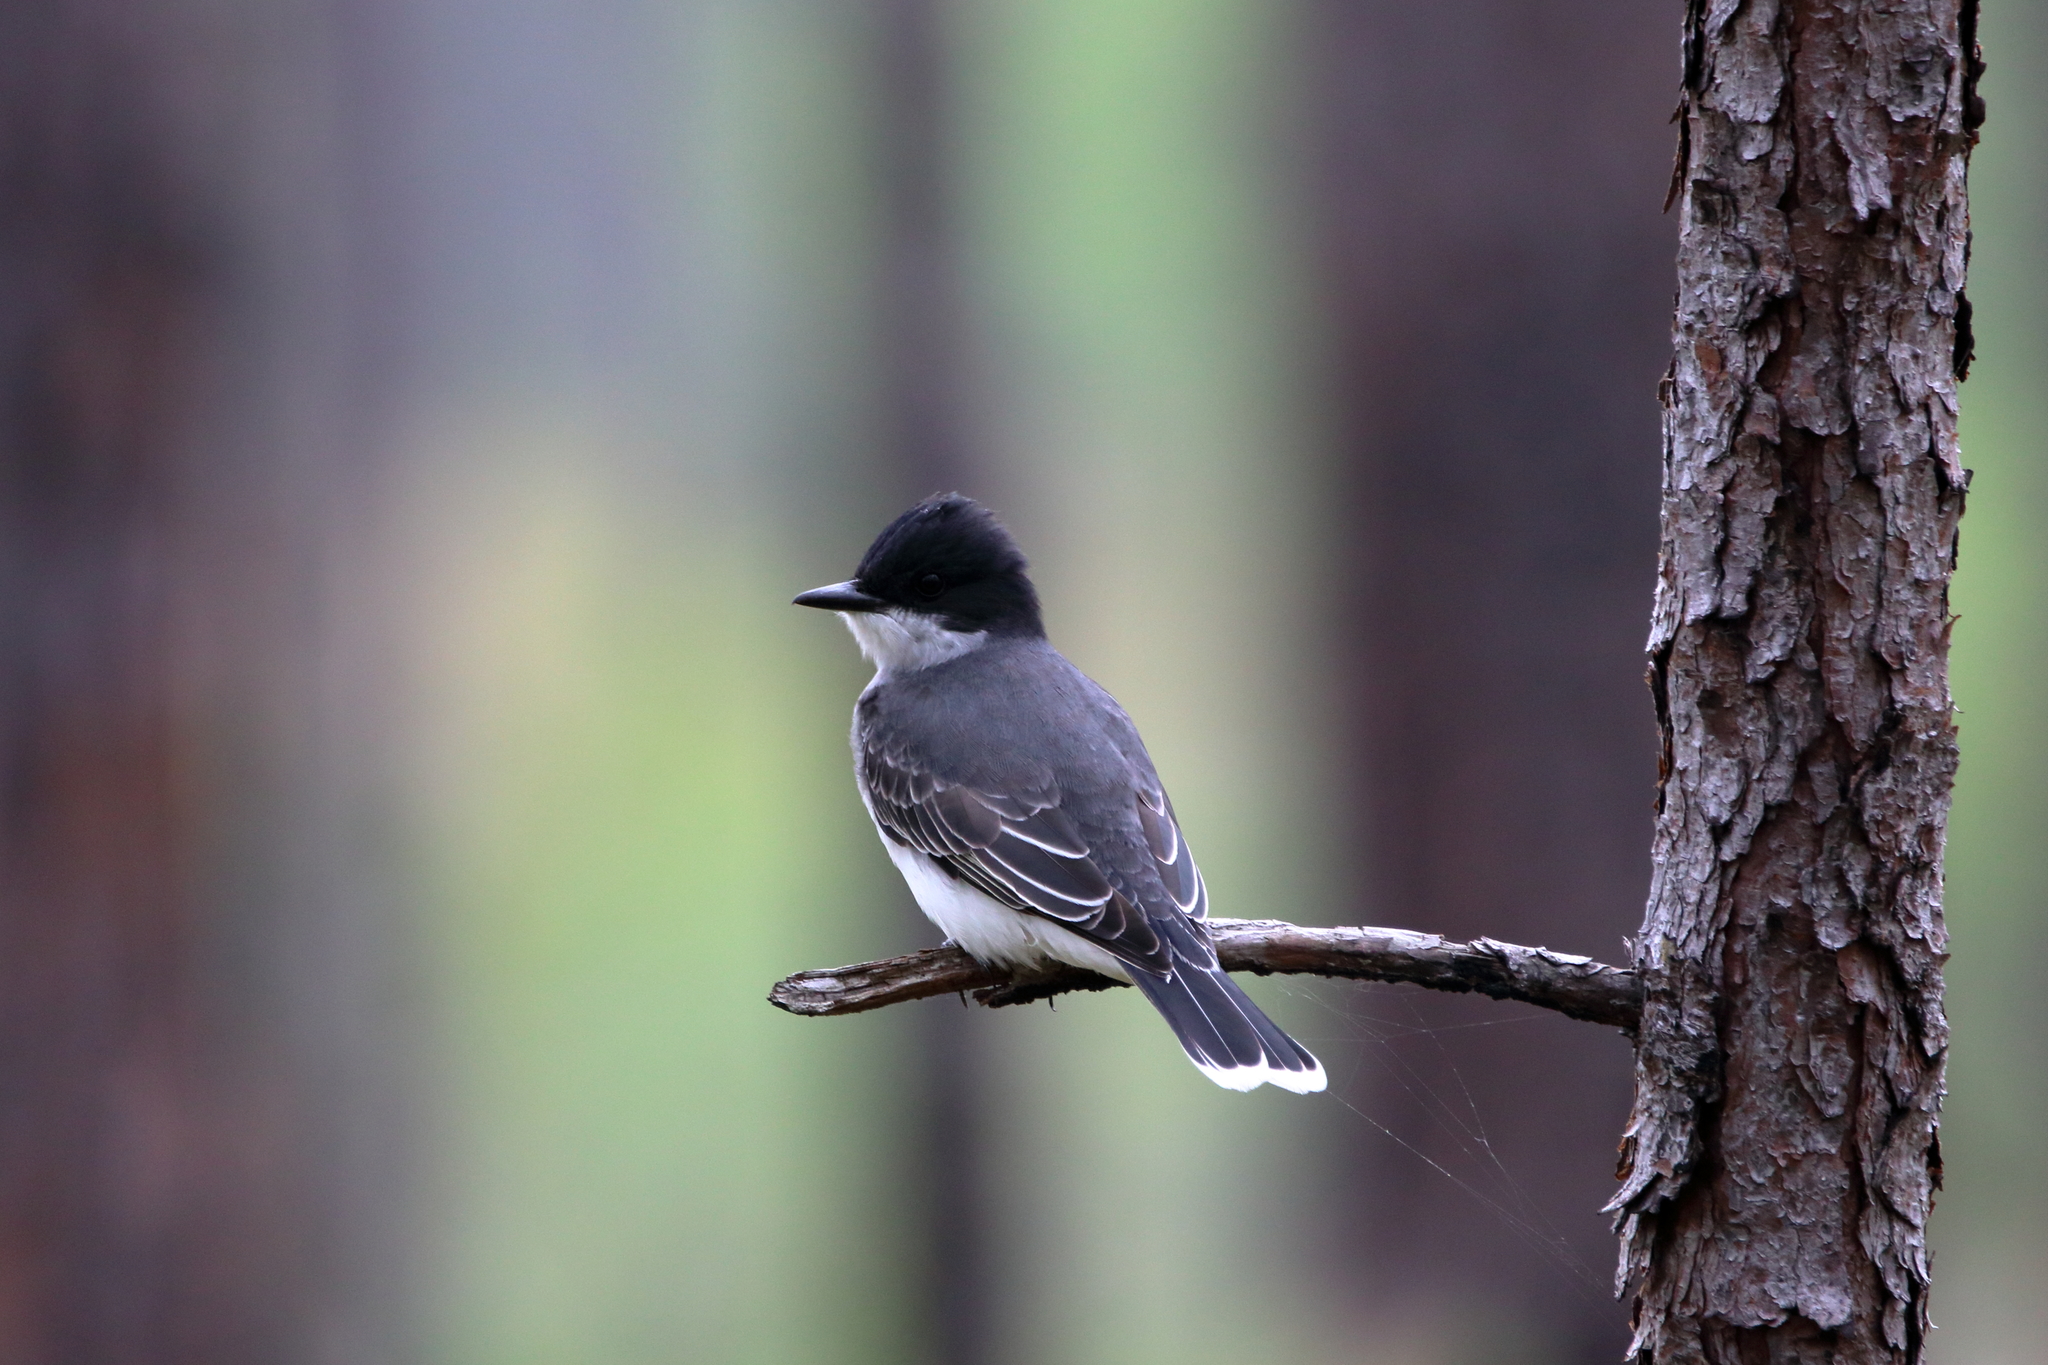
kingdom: Animalia
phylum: Chordata
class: Aves
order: Passeriformes
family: Tyrannidae
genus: Tyrannus
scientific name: Tyrannus tyrannus
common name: Eastern kingbird
